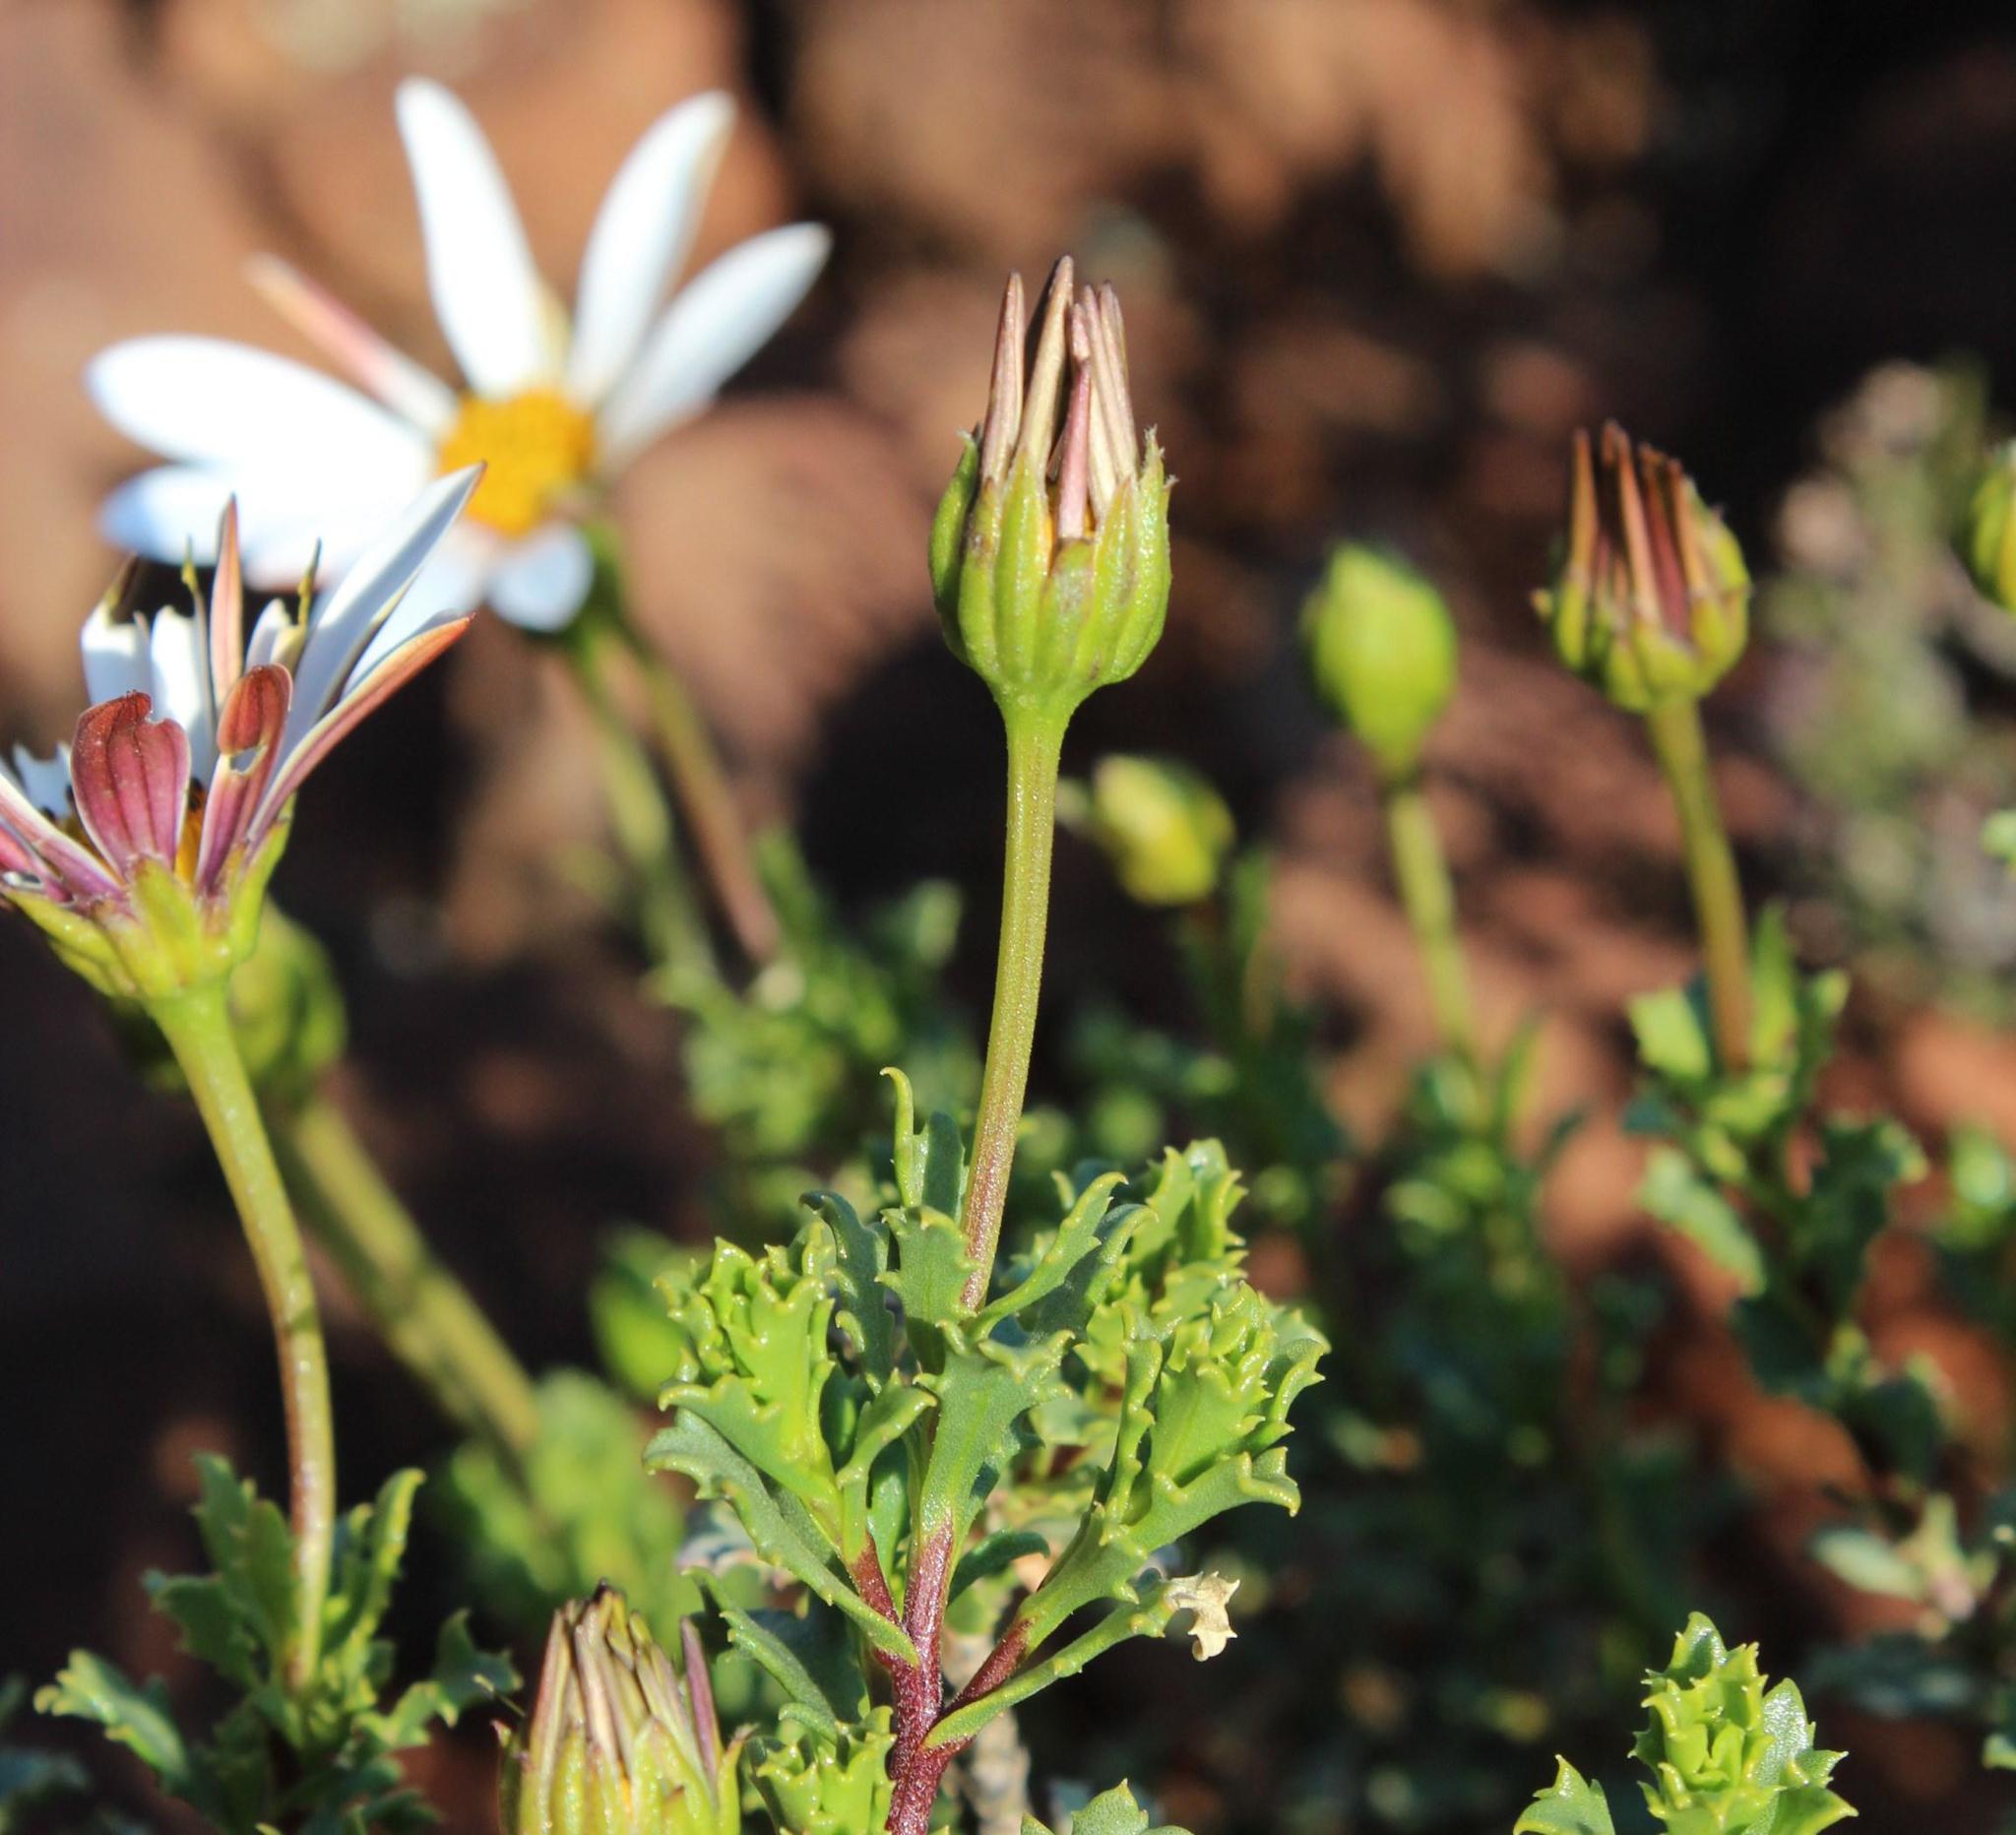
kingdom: Plantae
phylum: Tracheophyta
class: Magnoliopsida
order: Asterales
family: Asteraceae
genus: Dimorphotheca
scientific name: Dimorphotheca cuneata
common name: Daisy
